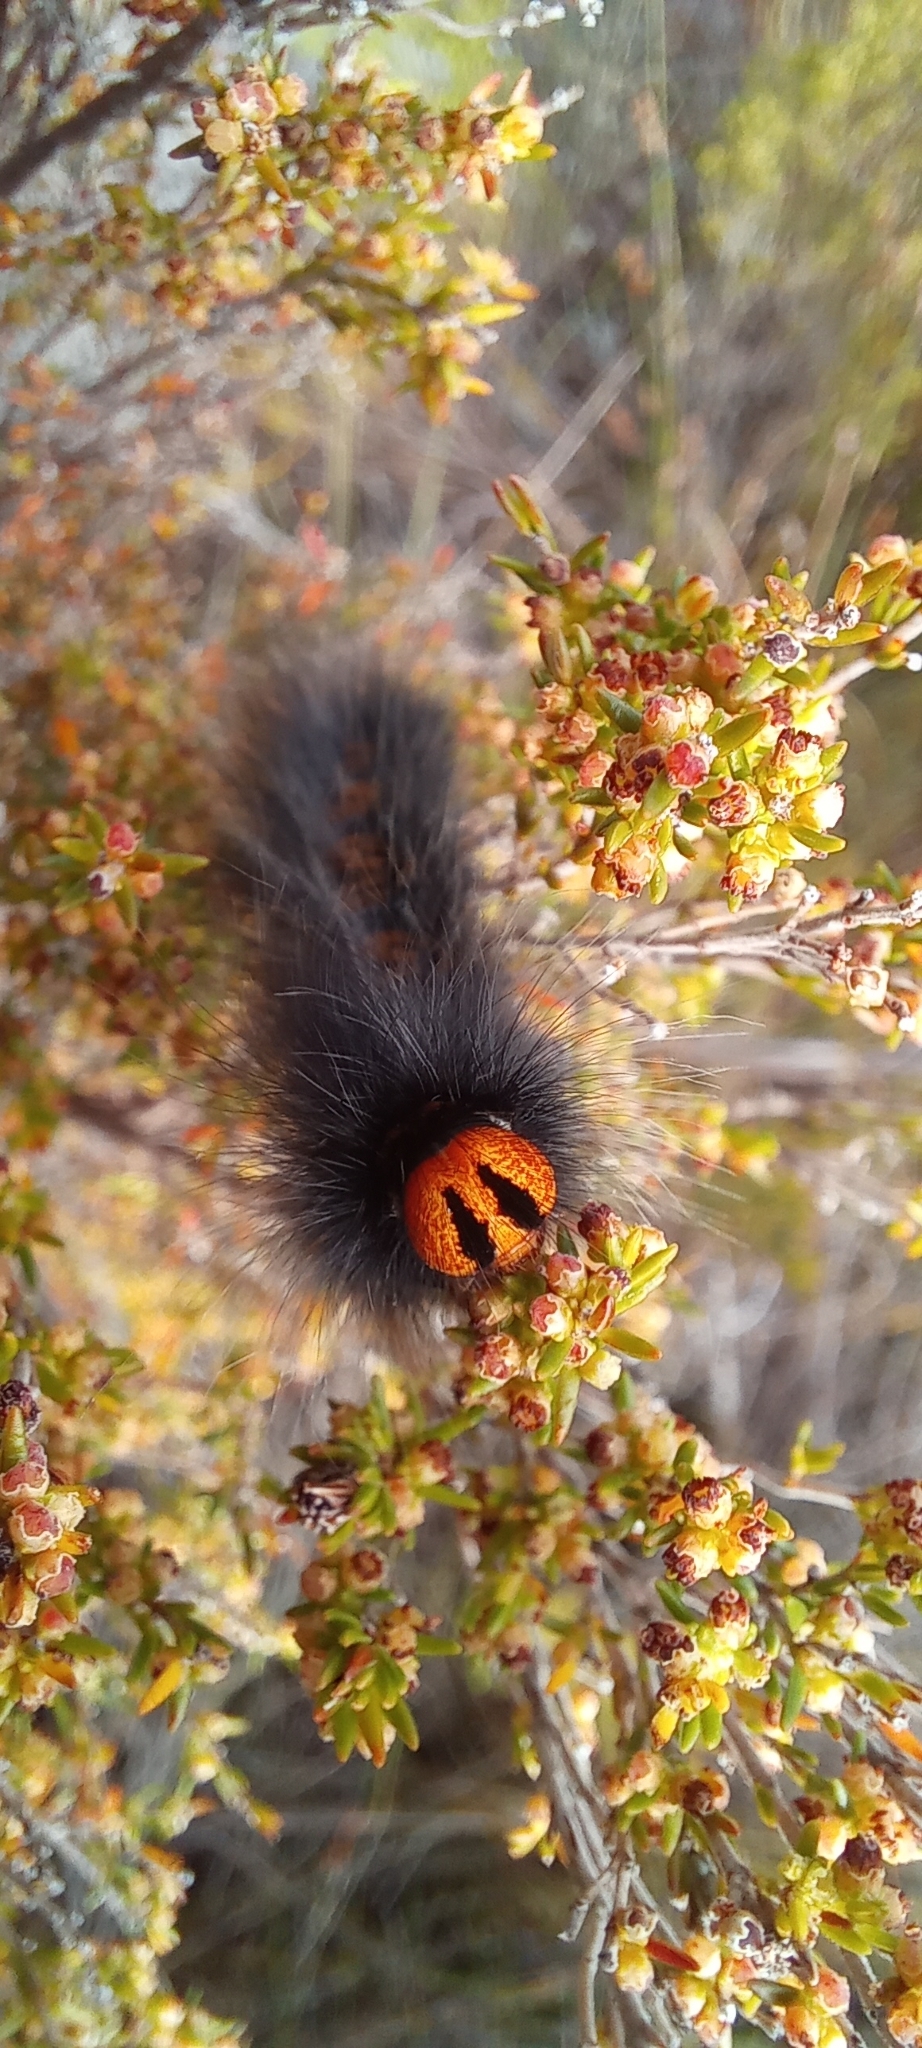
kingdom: Animalia
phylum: Arthropoda
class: Insecta
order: Lepidoptera
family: Lasiocampidae
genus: Mesocelis
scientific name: Mesocelis monticola
